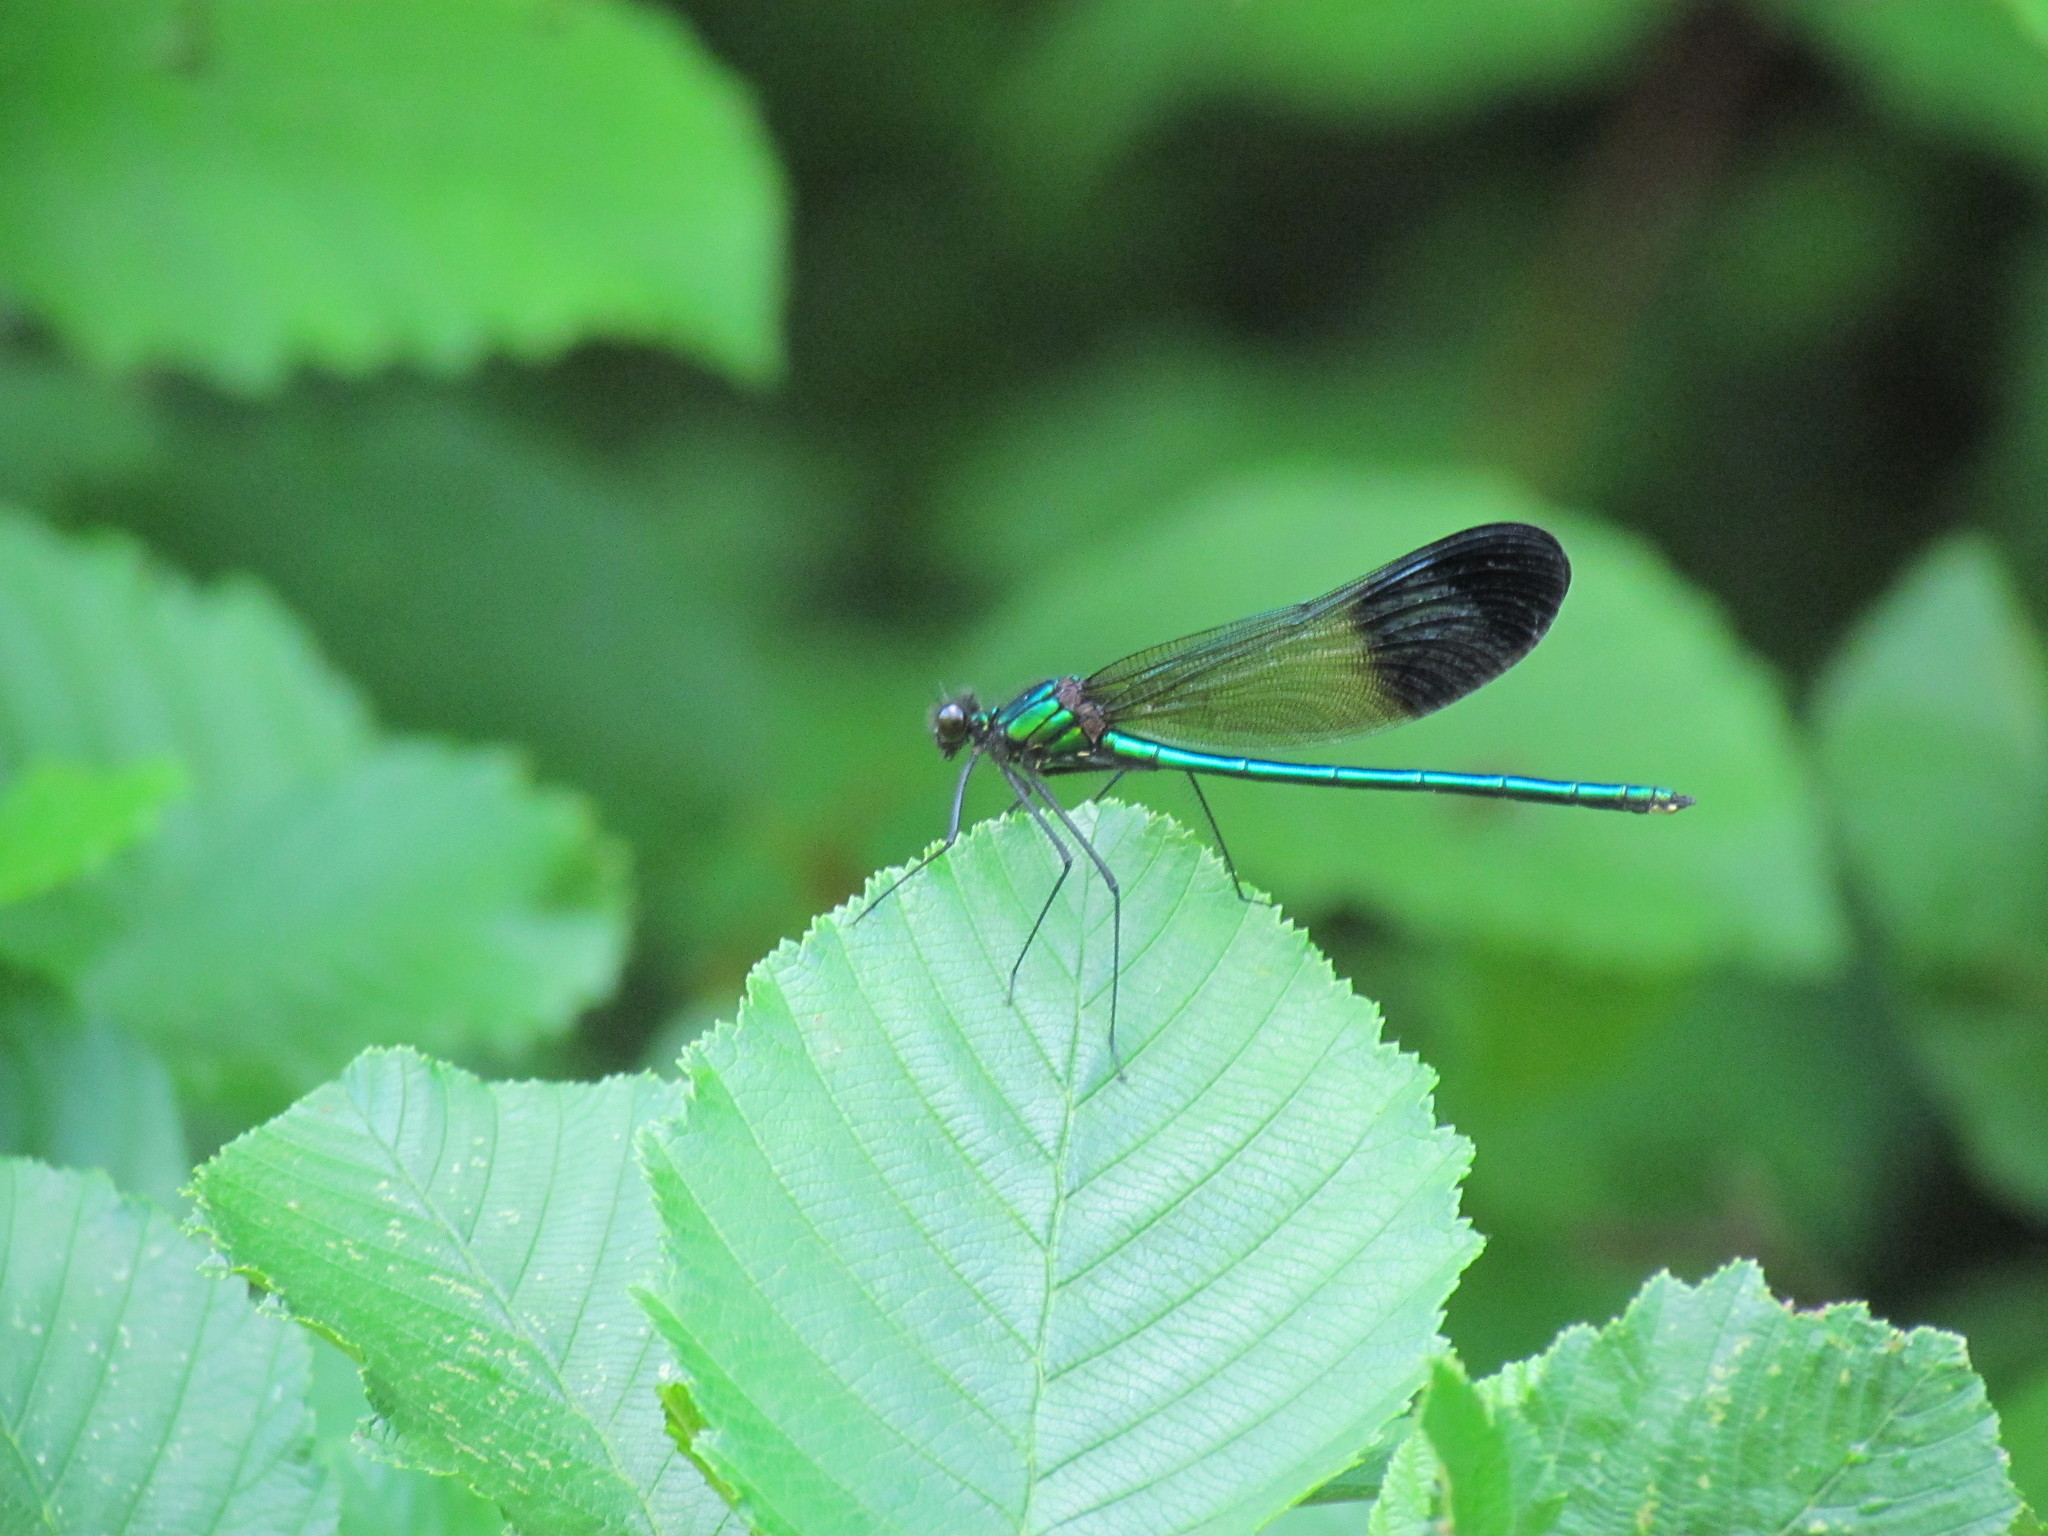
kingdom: Animalia
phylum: Arthropoda
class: Insecta
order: Odonata
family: Calopterygidae
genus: Calopteryx
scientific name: Calopteryx aequabilis
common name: River jewelwing
